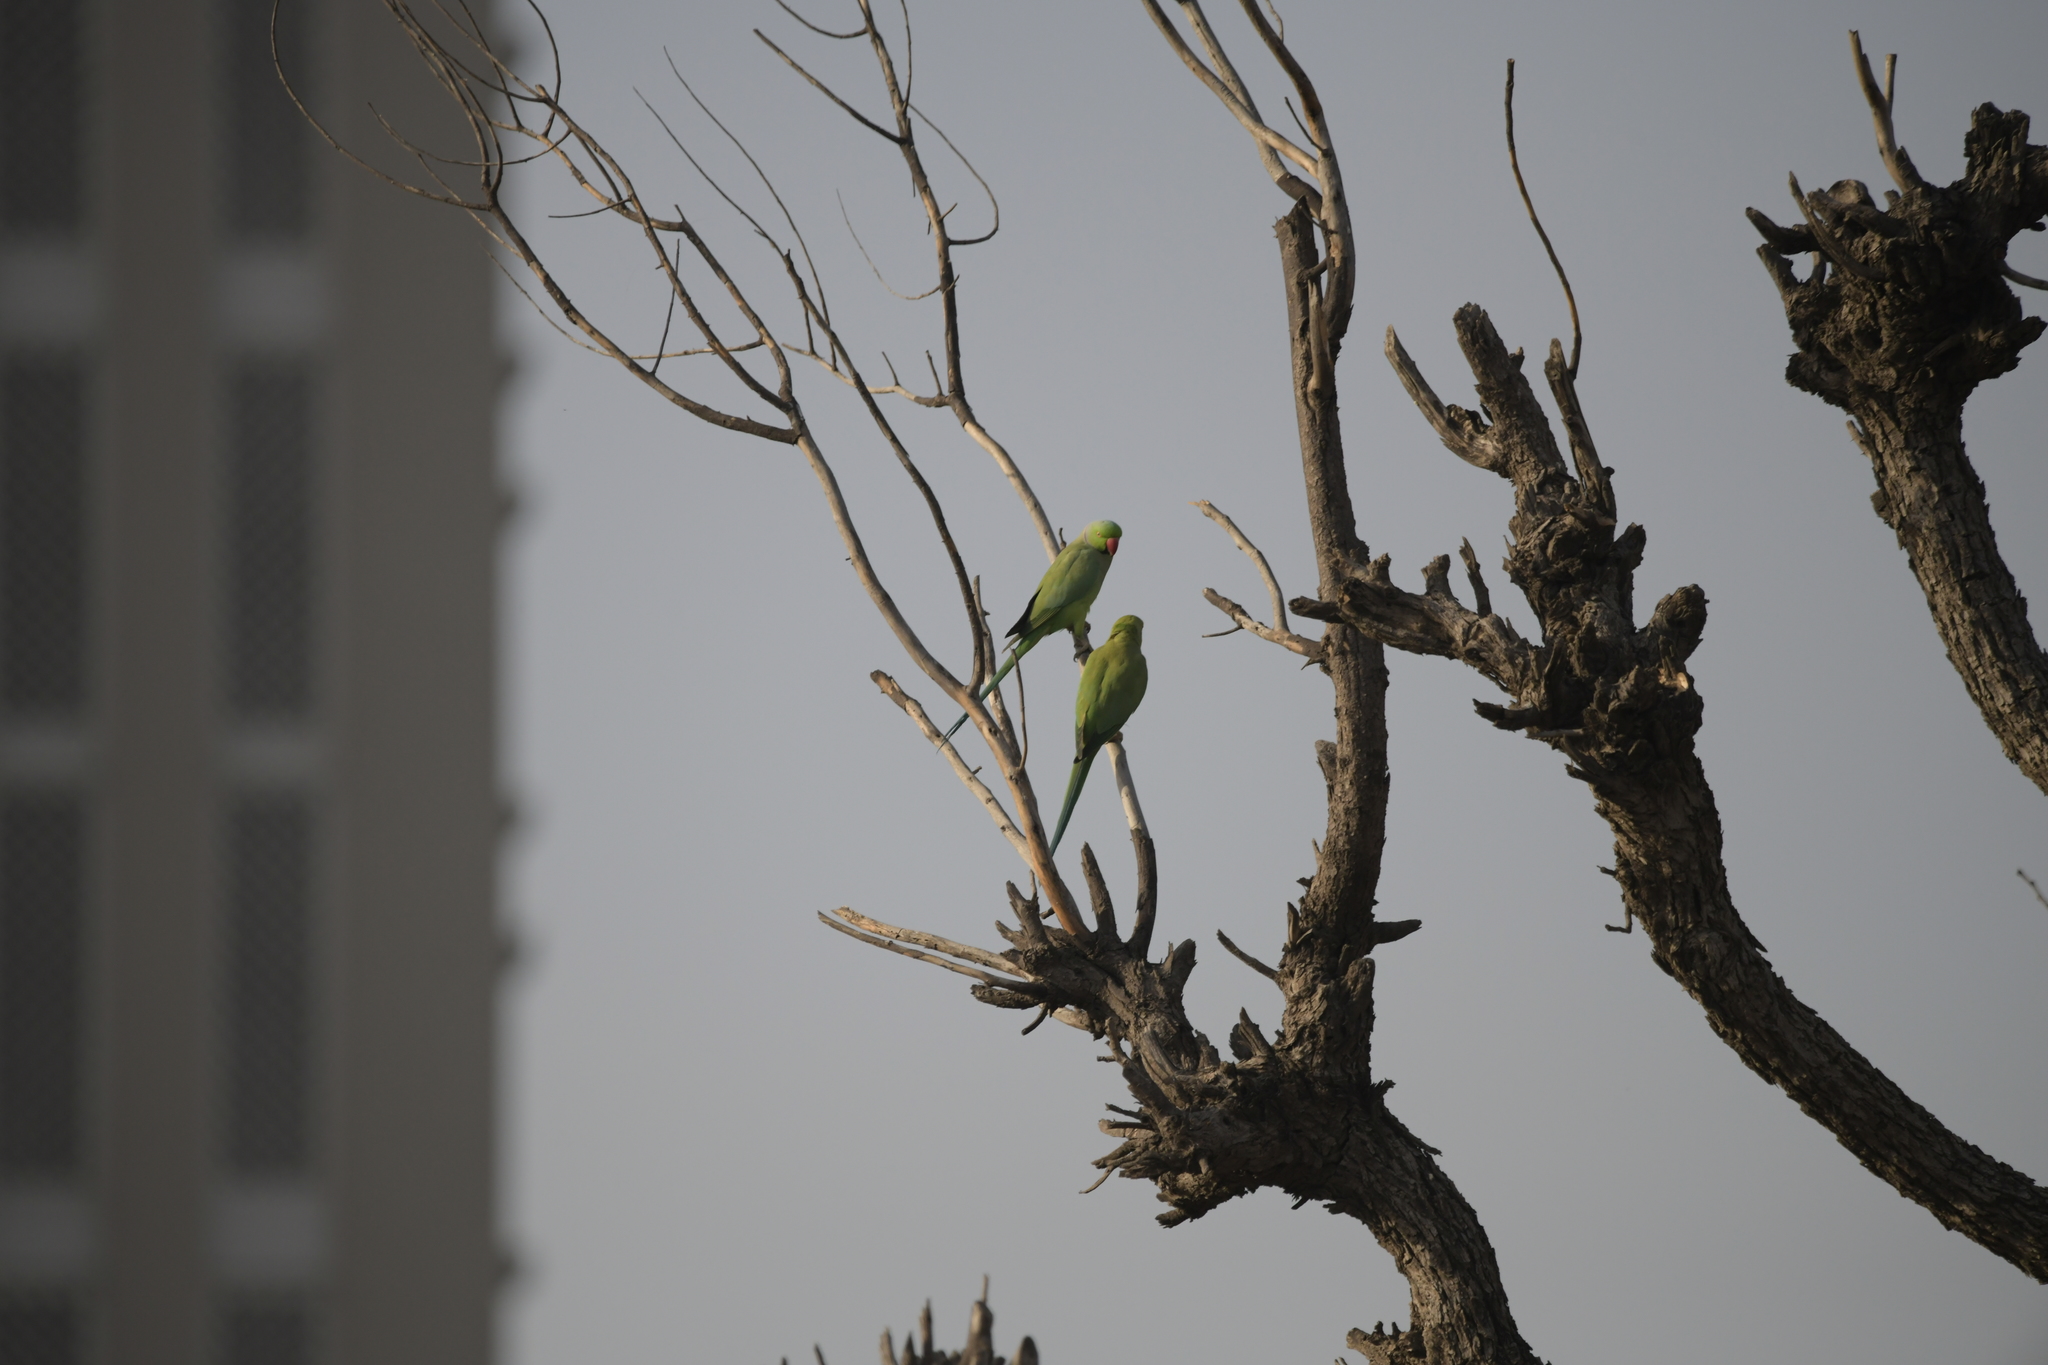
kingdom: Animalia
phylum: Chordata
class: Aves
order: Psittaciformes
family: Psittacidae
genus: Psittacula
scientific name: Psittacula krameri
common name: Rose-ringed parakeet
